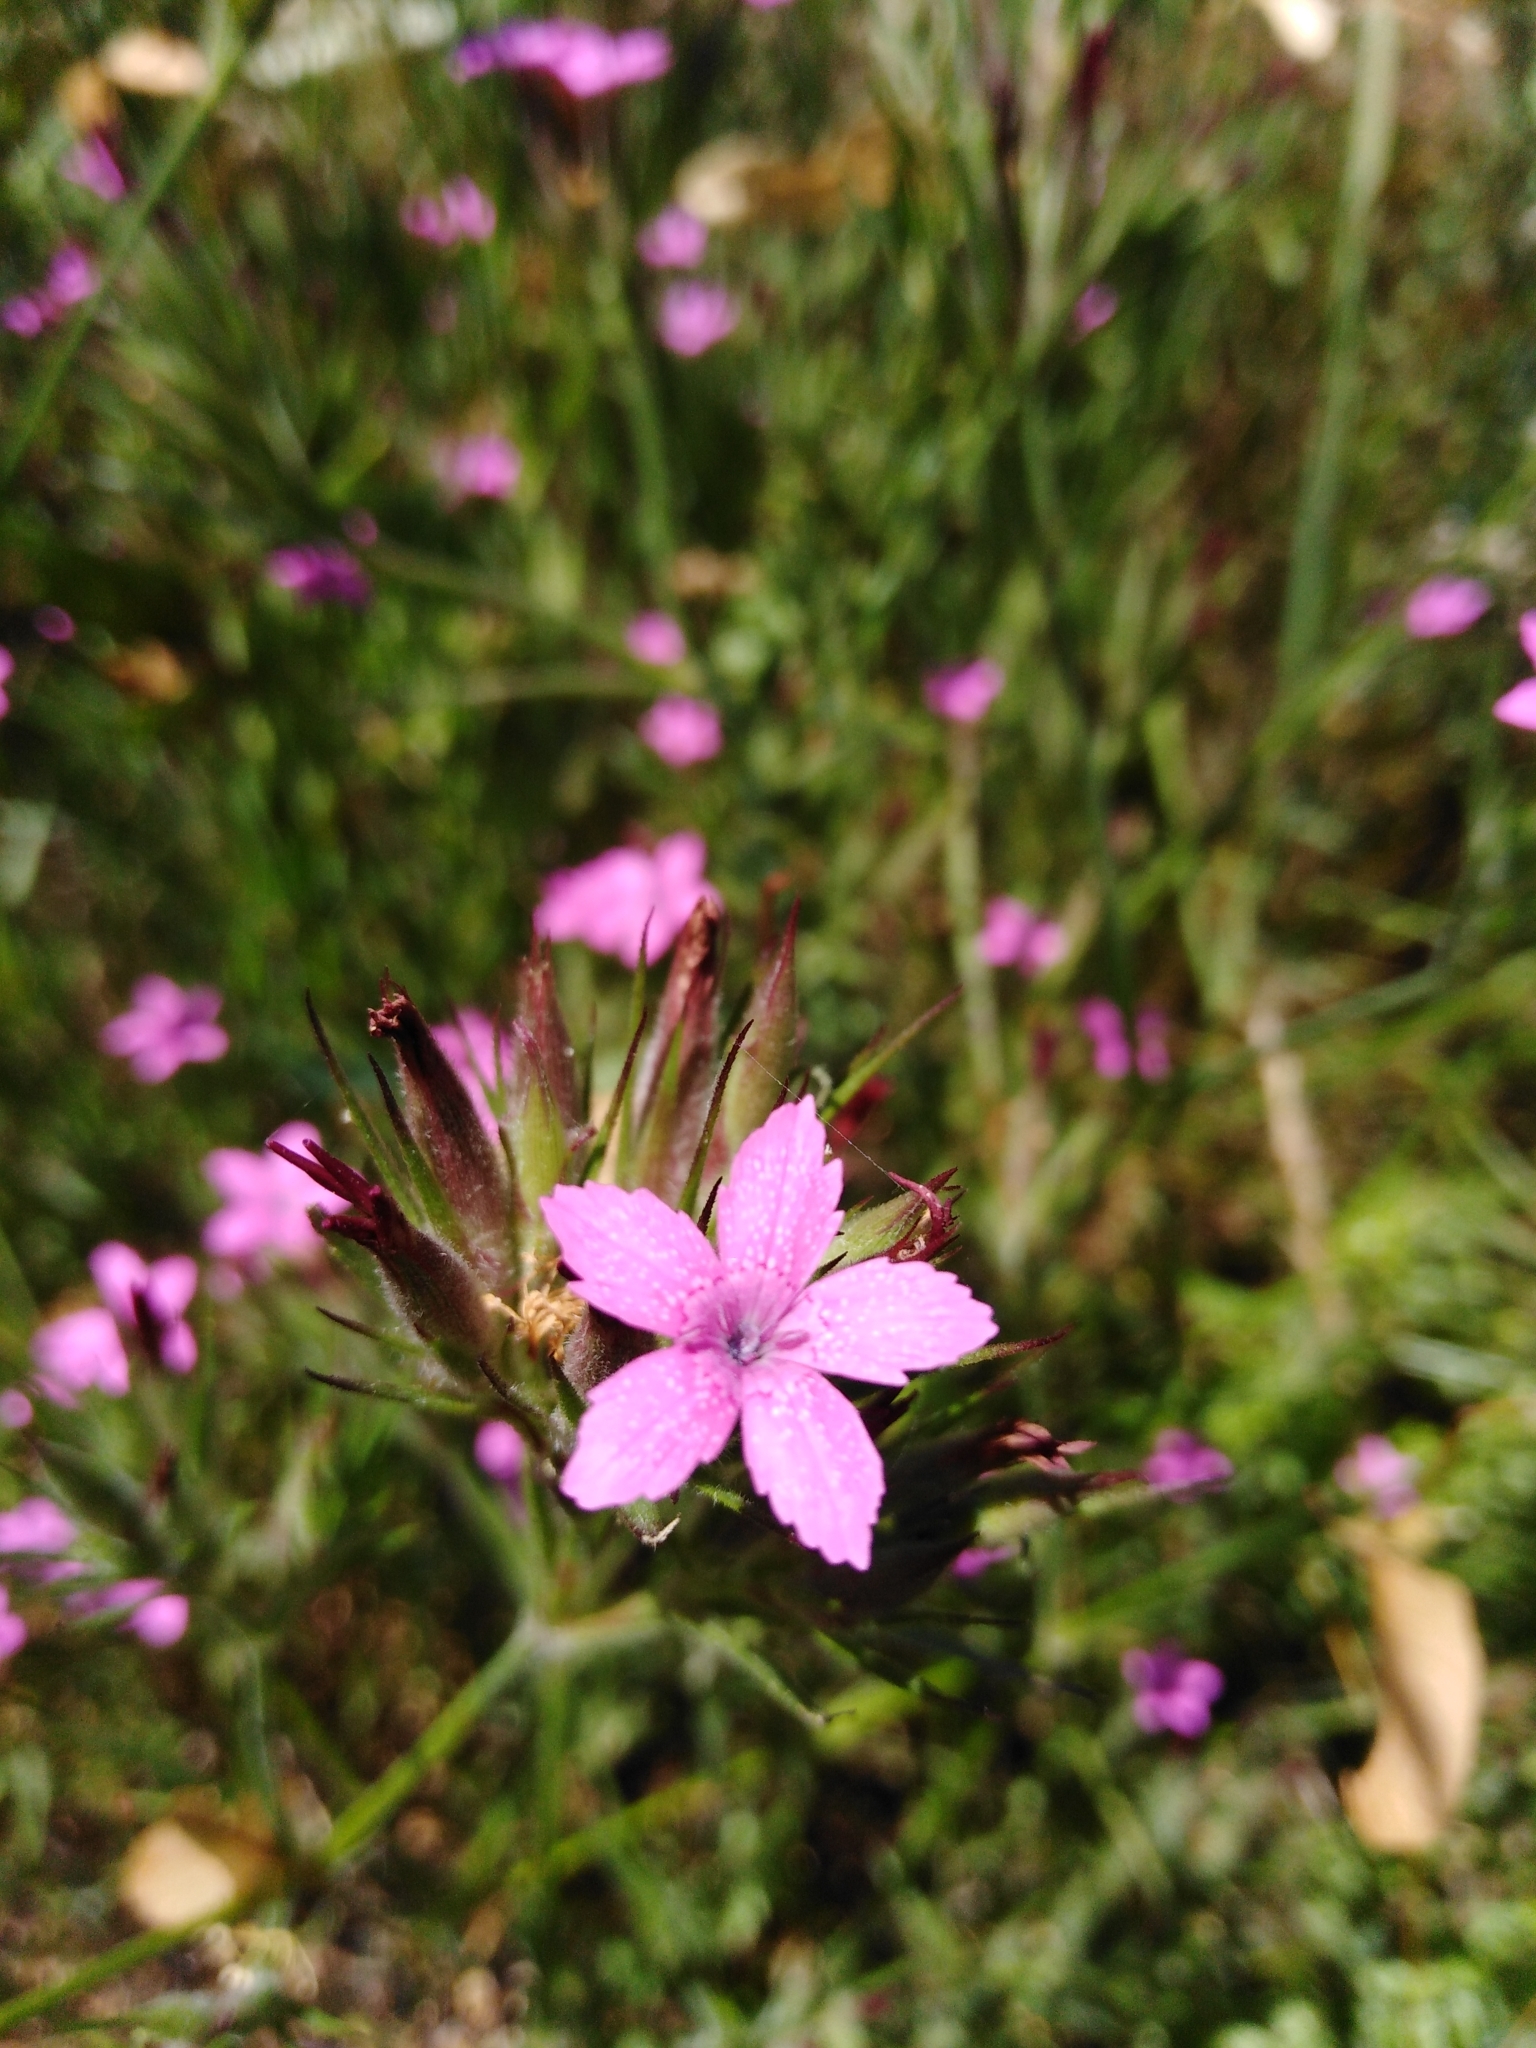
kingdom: Plantae
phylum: Tracheophyta
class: Magnoliopsida
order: Caryophyllales
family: Caryophyllaceae
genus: Dianthus
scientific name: Dianthus armeria
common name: Deptford pink
